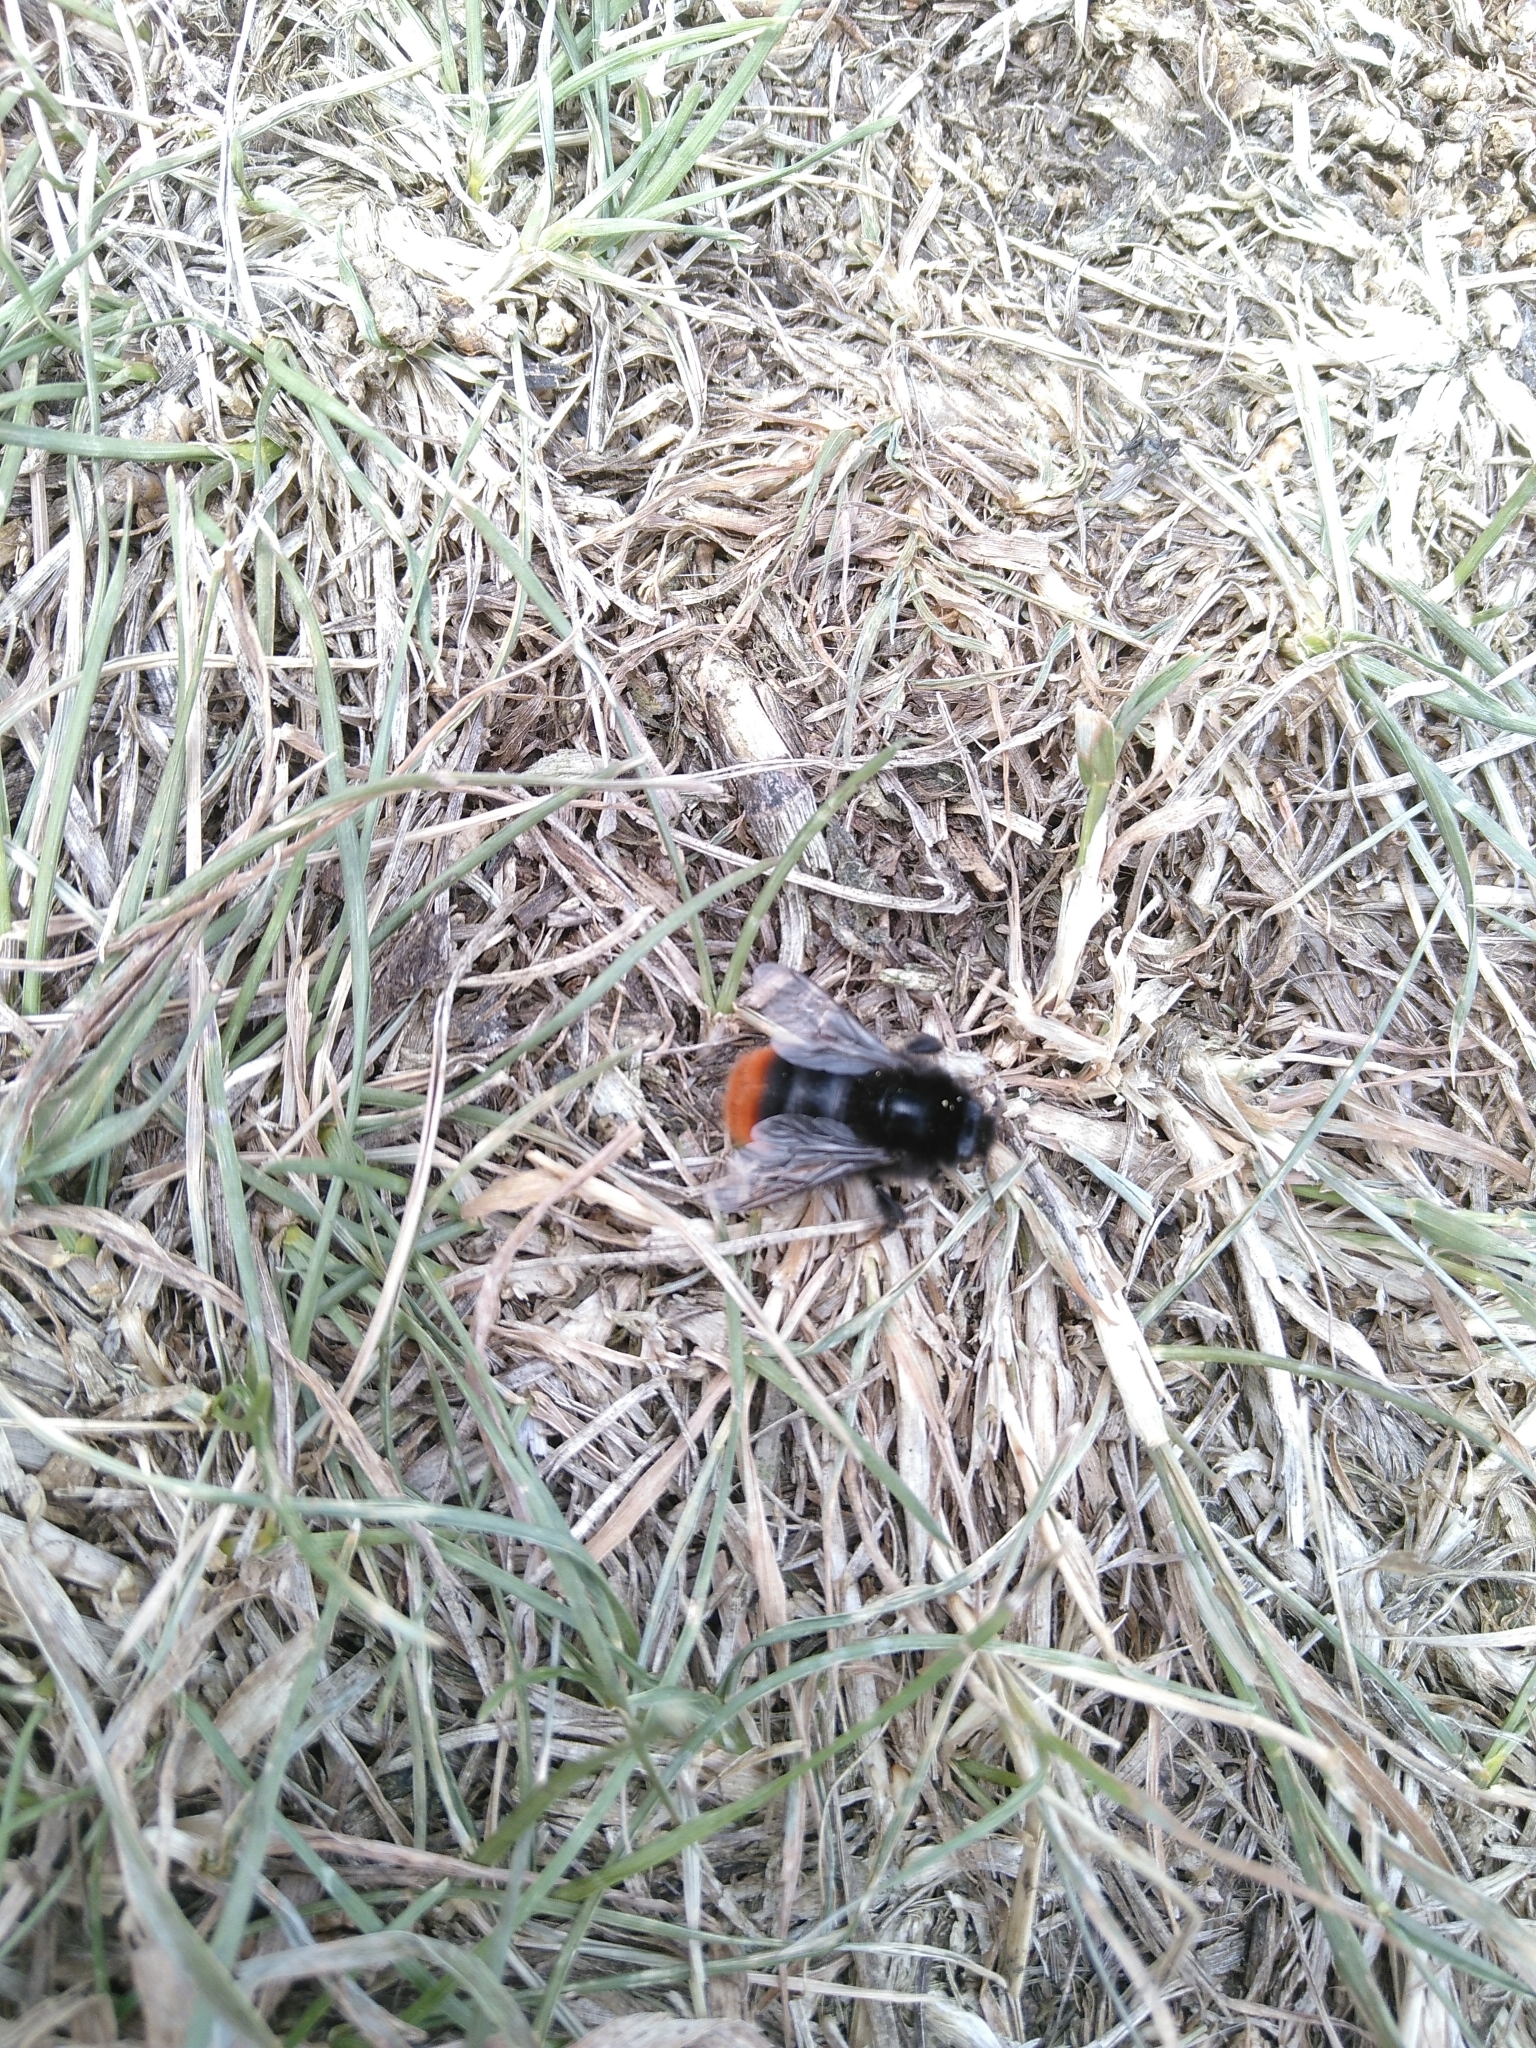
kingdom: Animalia
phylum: Arthropoda
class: Insecta
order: Hymenoptera
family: Apidae
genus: Bombus
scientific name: Bombus lapidarius
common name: Large red-tailed humble-bee
